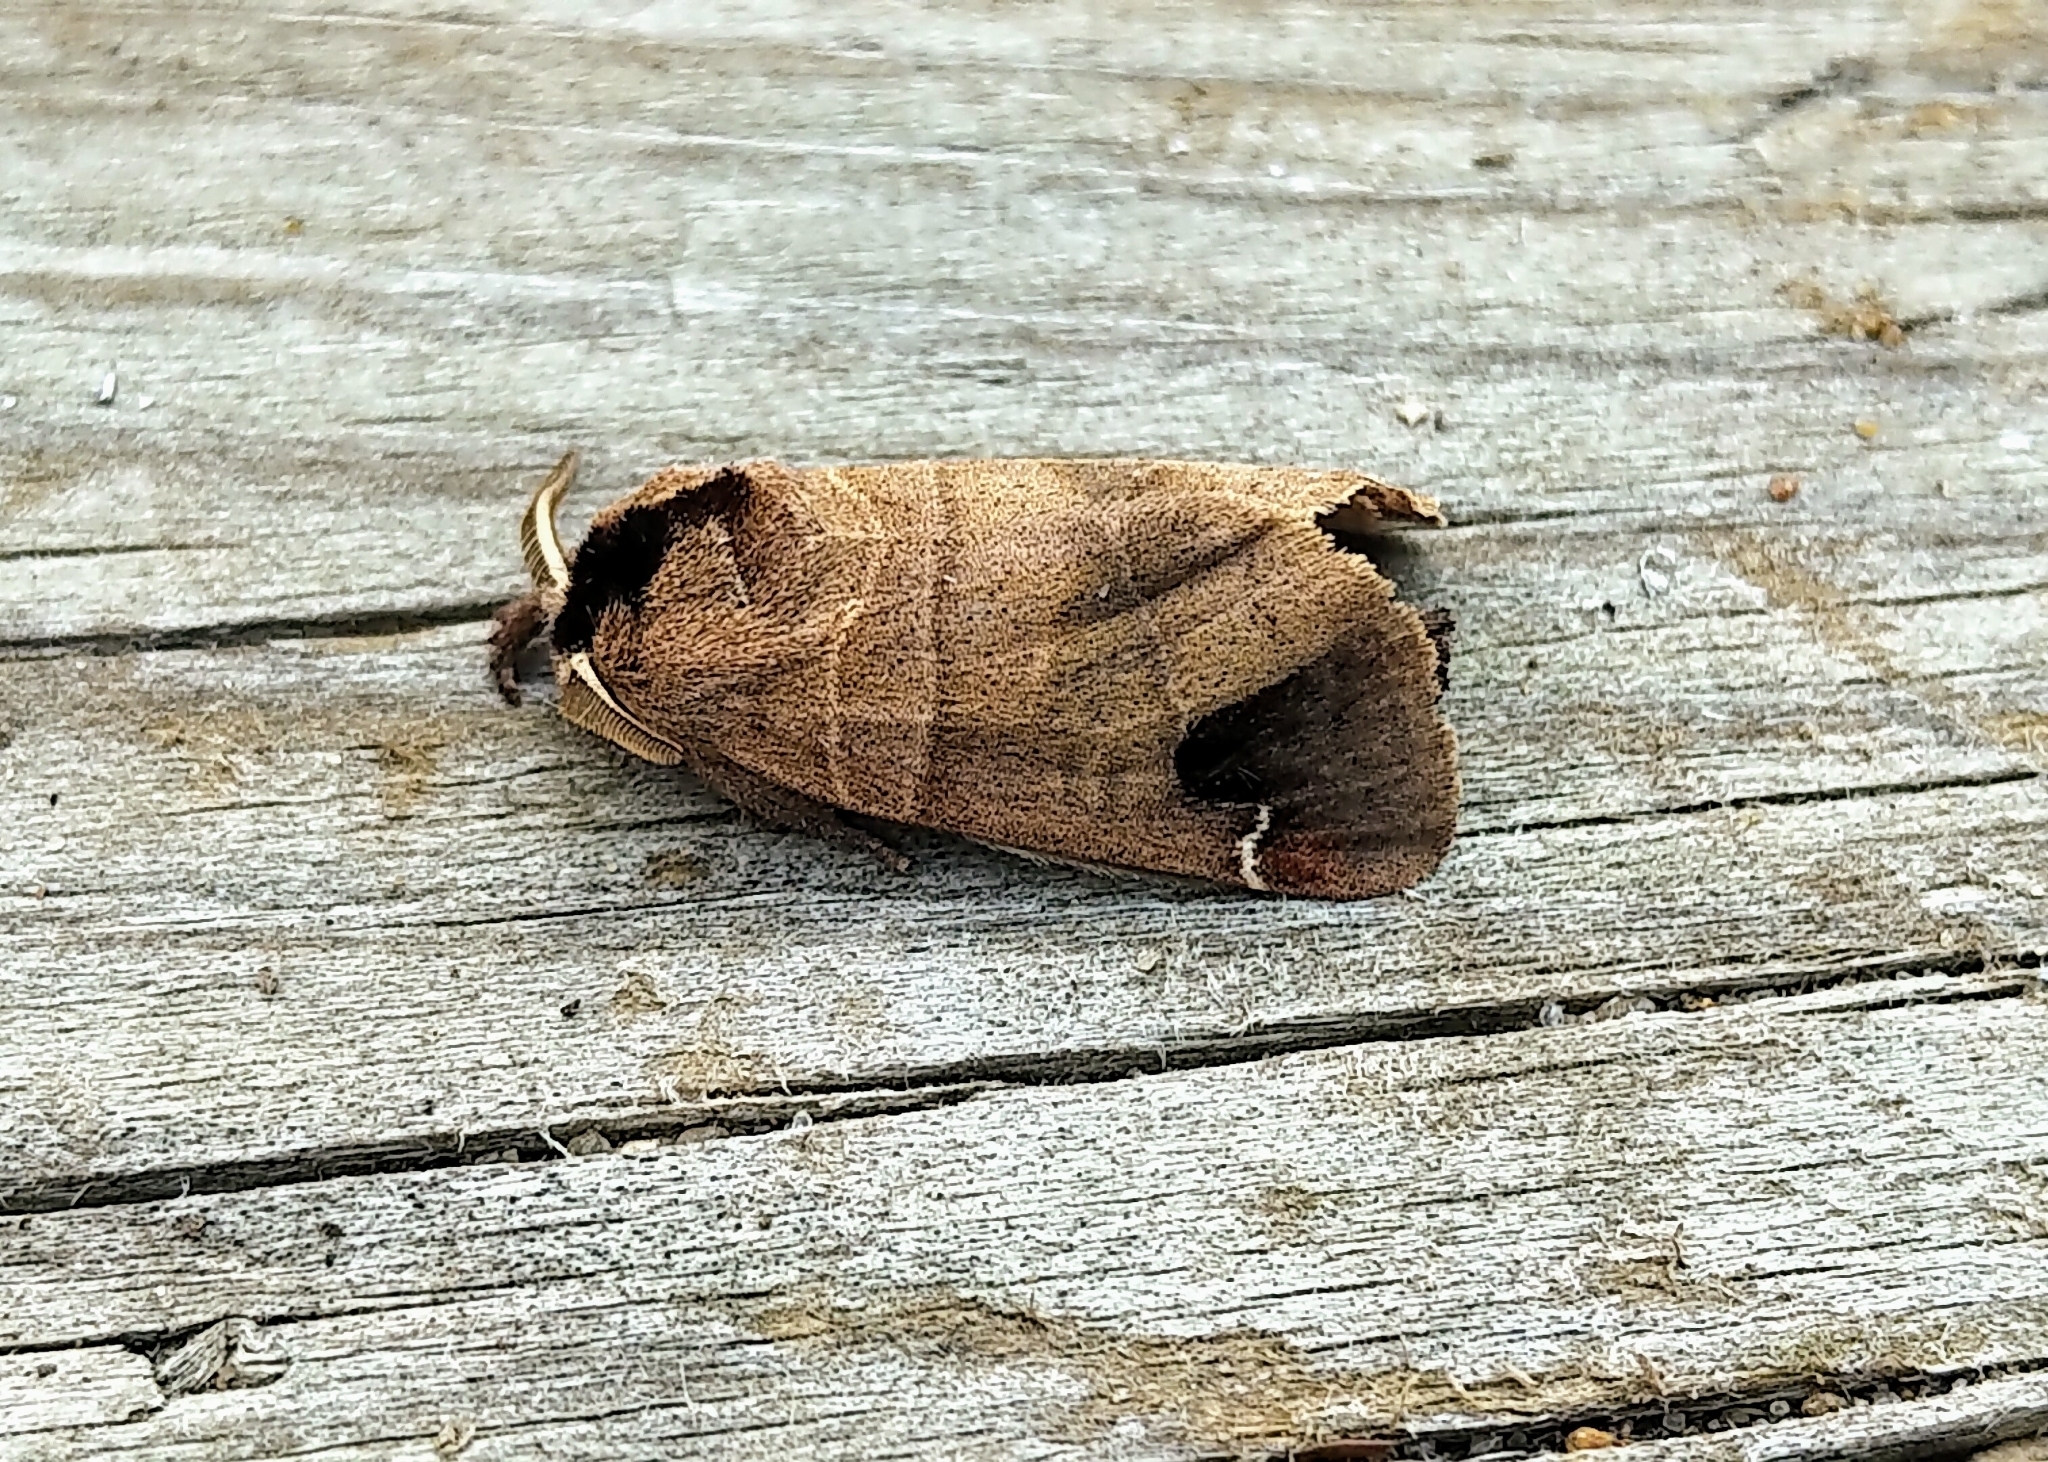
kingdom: Animalia
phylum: Arthropoda
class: Insecta
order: Lepidoptera
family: Notodontidae
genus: Clostera
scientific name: Clostera albosigma
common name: Sigmoid prominent
